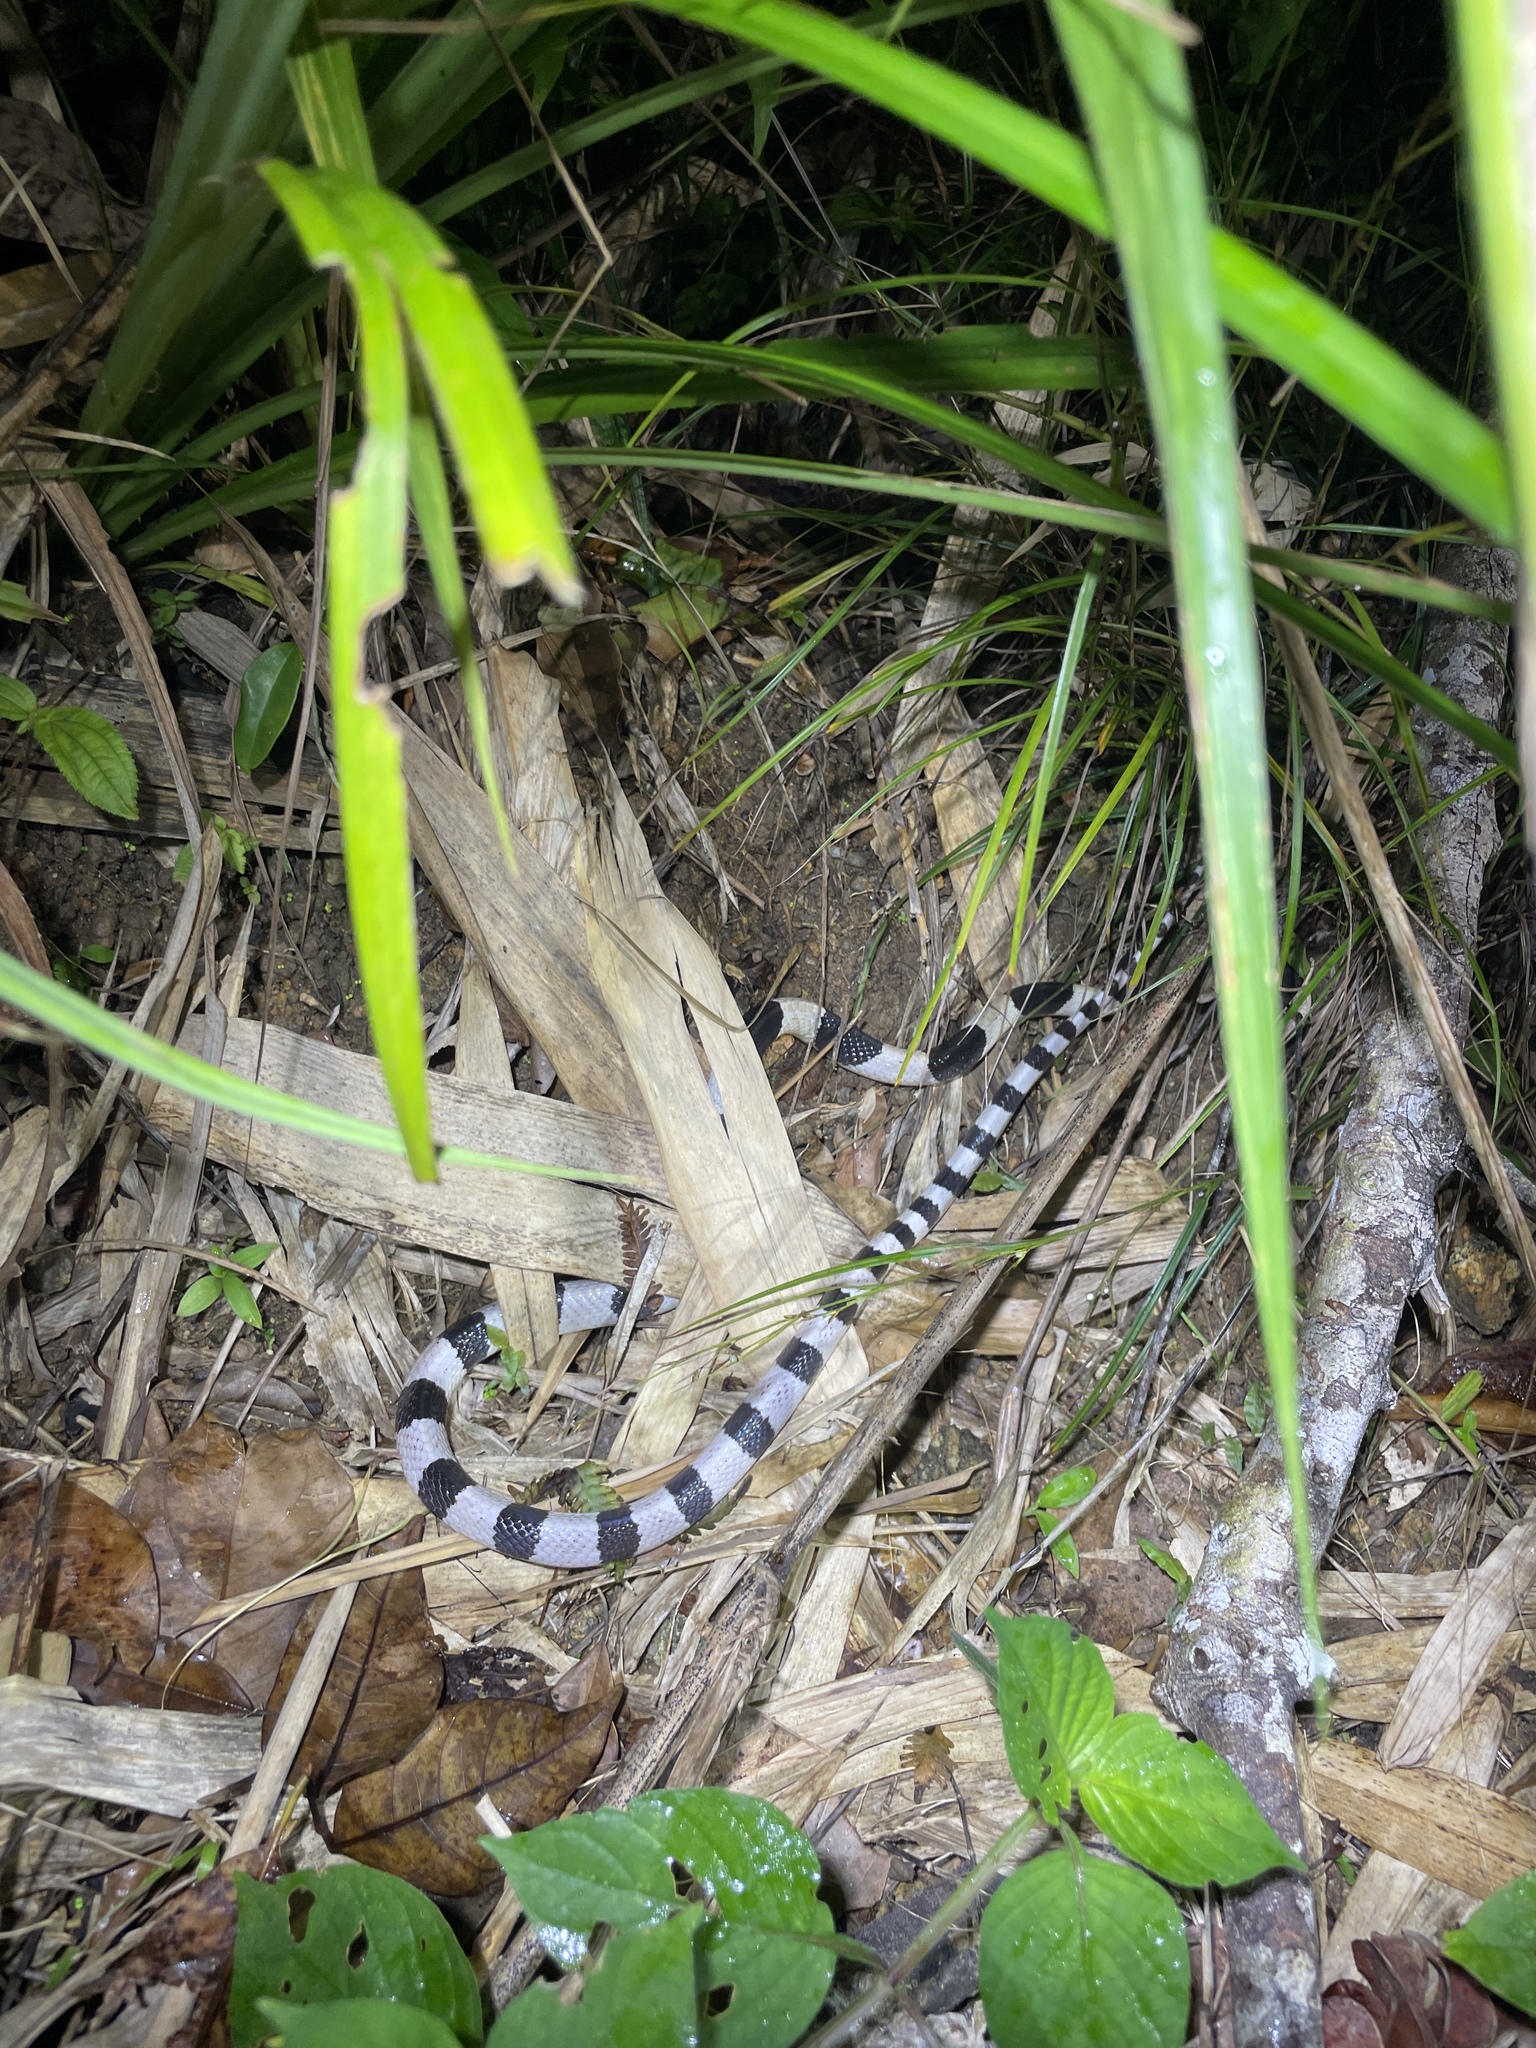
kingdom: Animalia
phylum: Chordata
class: Squamata
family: Elapidae
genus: Bungarus
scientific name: Bungarus candidus
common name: Blue krait/malayan krait
